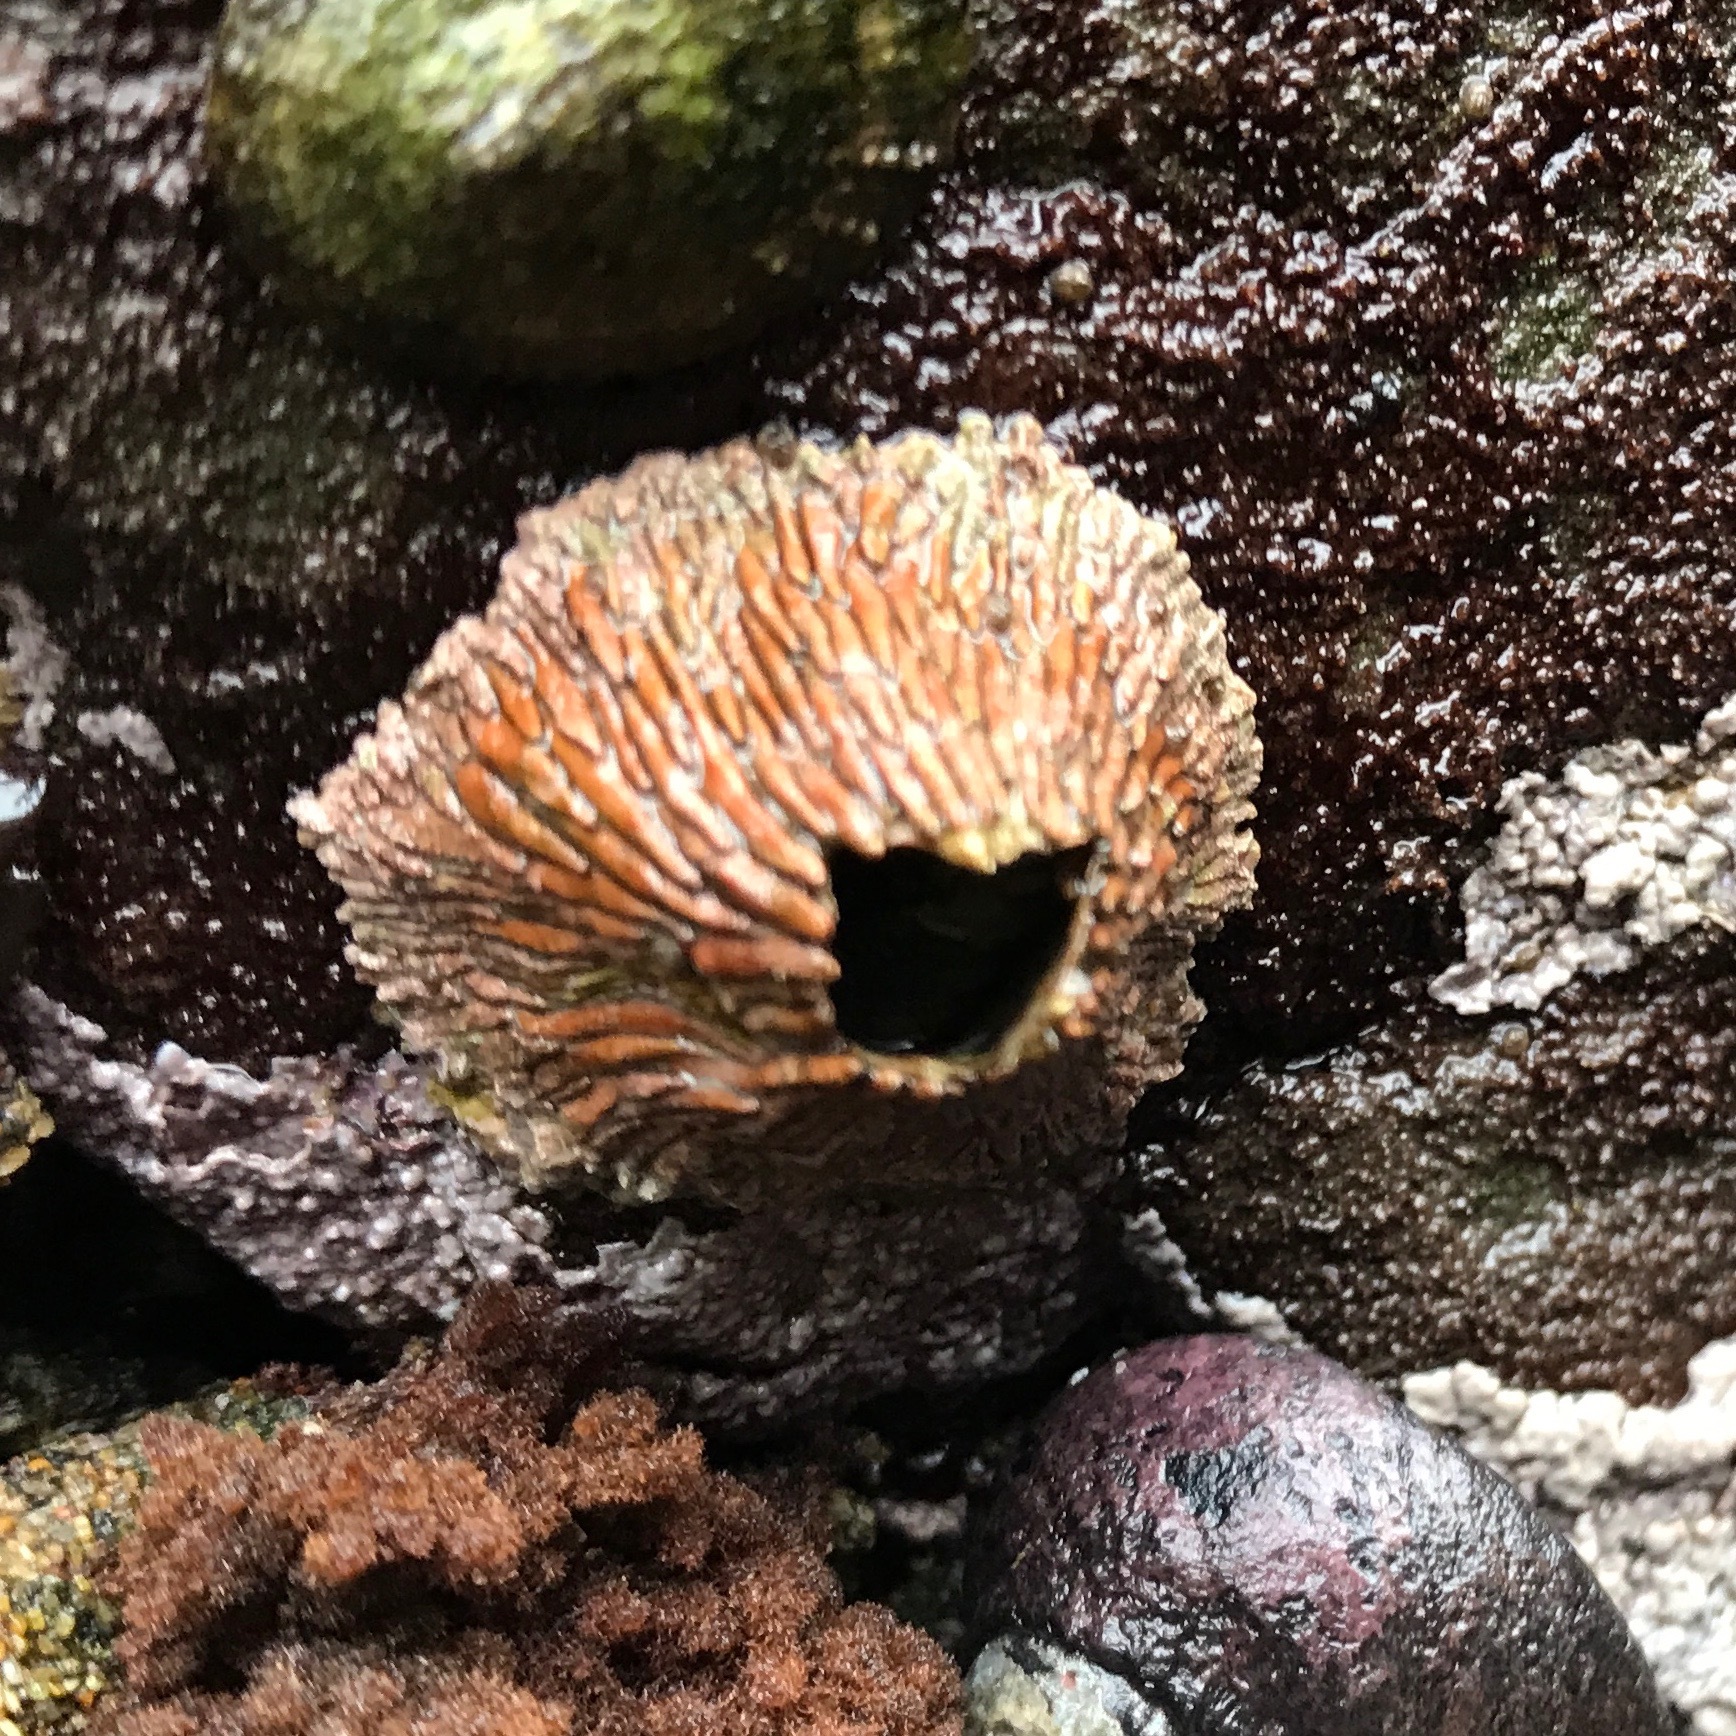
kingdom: Animalia
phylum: Arthropoda
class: Maxillopoda
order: Sessilia
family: Tetraclitidae
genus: Tetraclita
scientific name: Tetraclita rubescens
